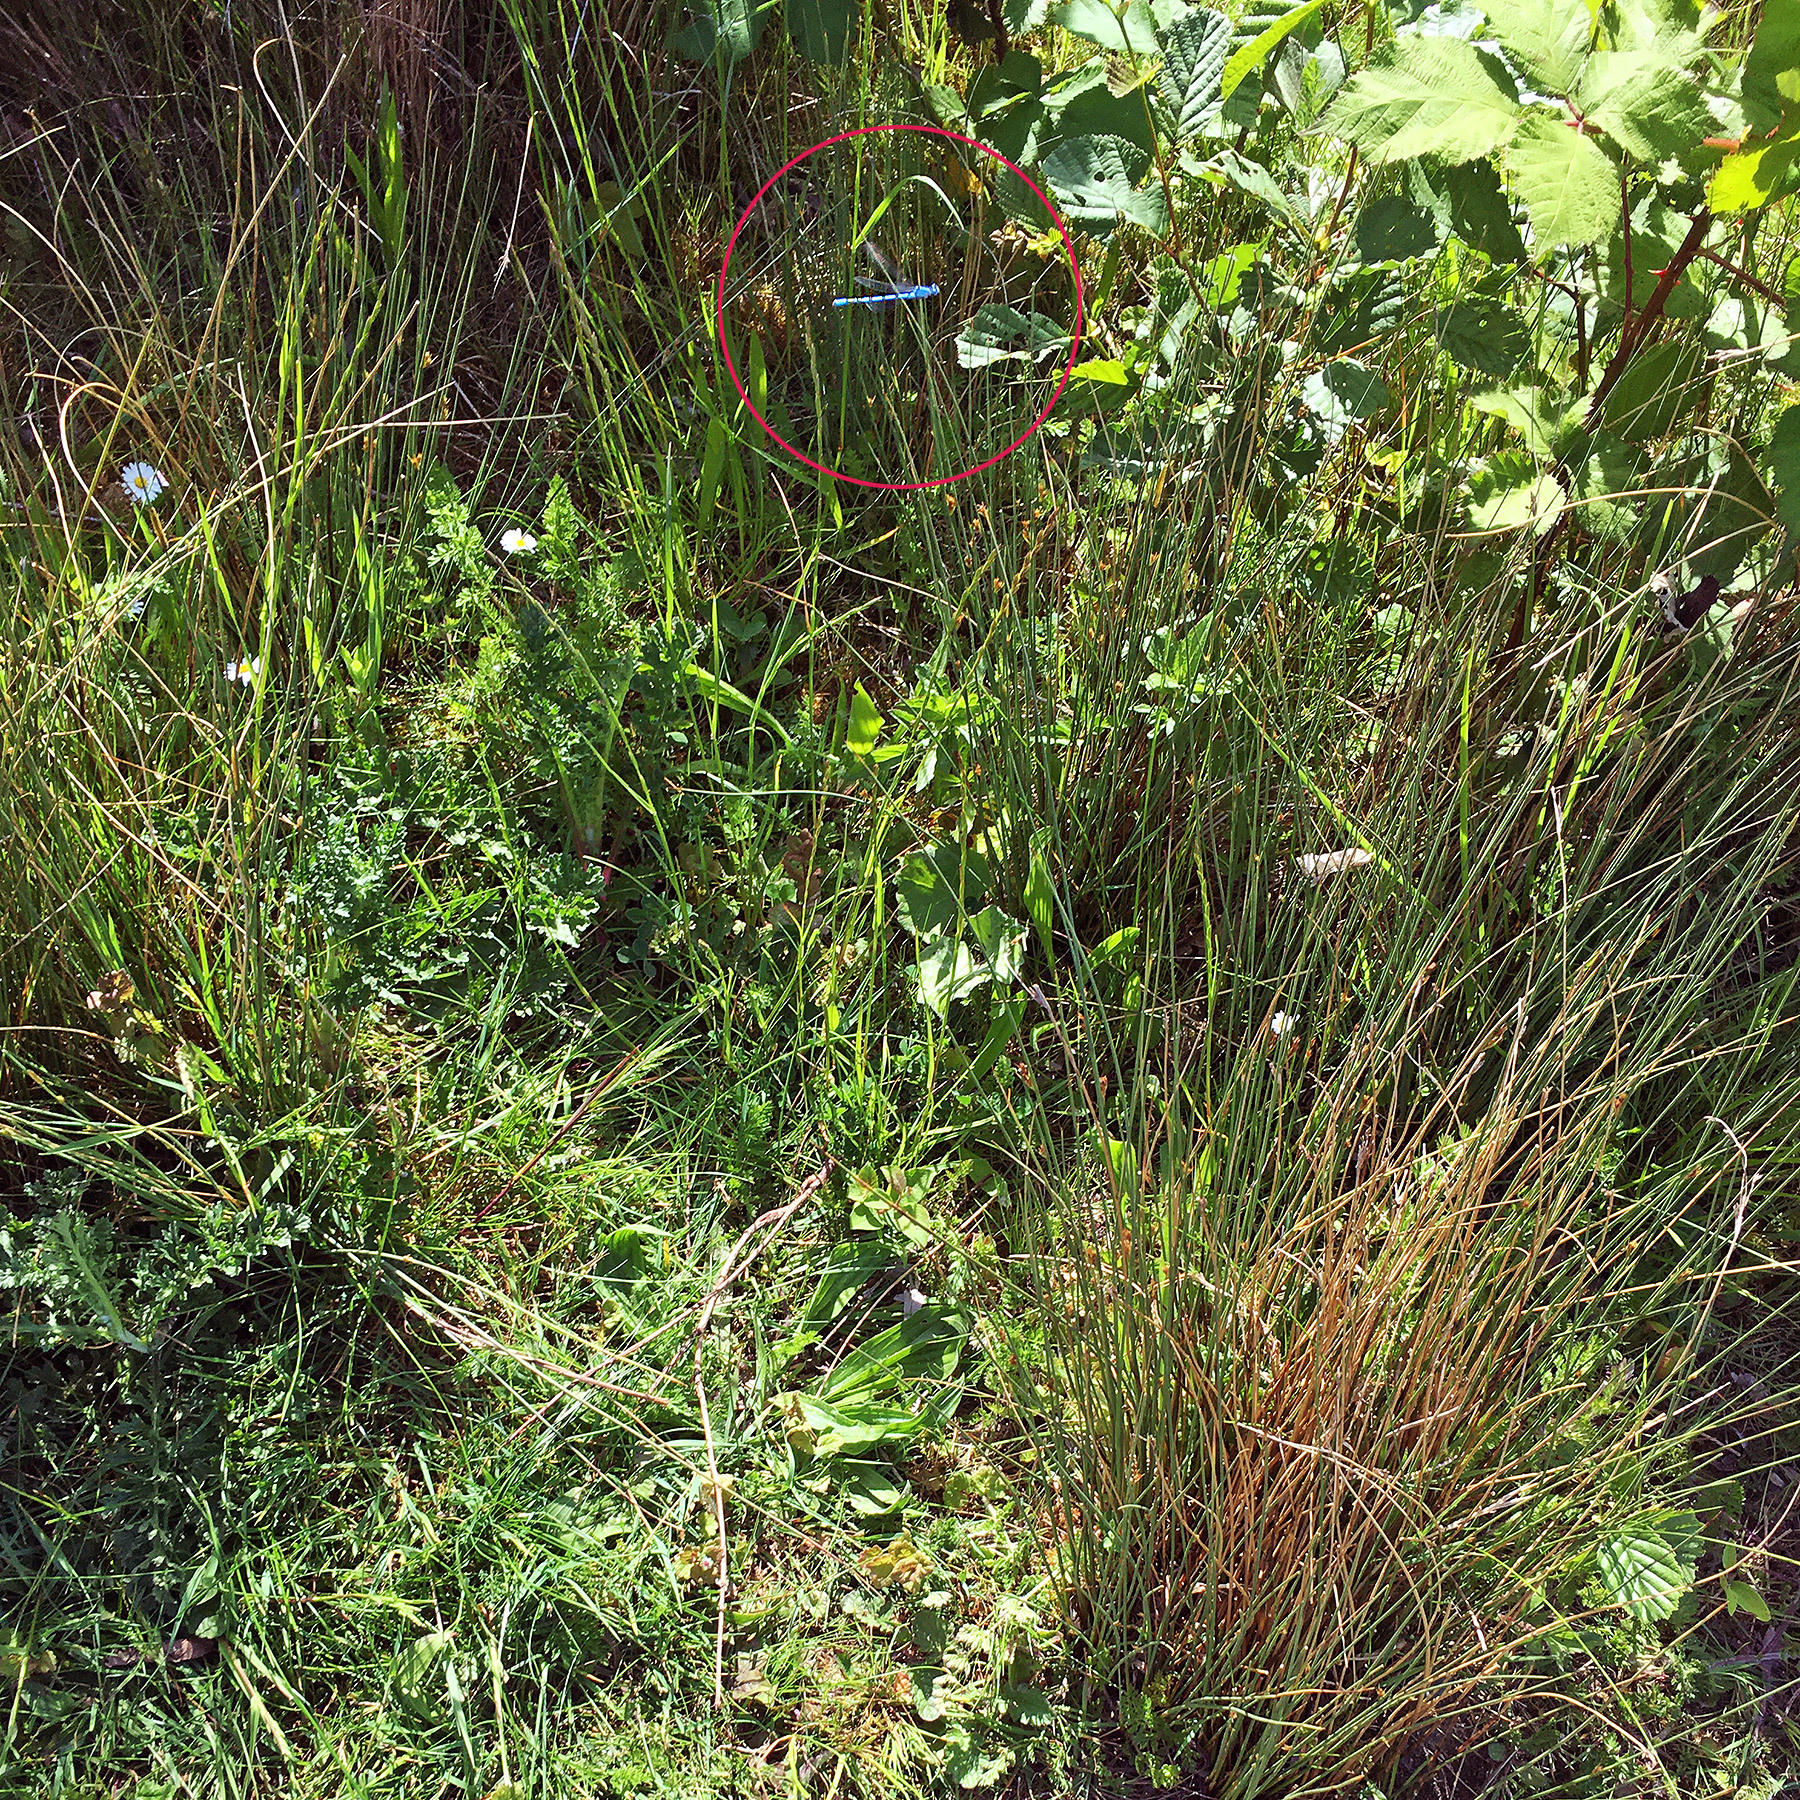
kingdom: Animalia
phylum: Arthropoda
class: Insecta
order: Odonata
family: Coenagrionidae
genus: Enallagma
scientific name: Enallagma cyathigerum
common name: Common blue damselfly
